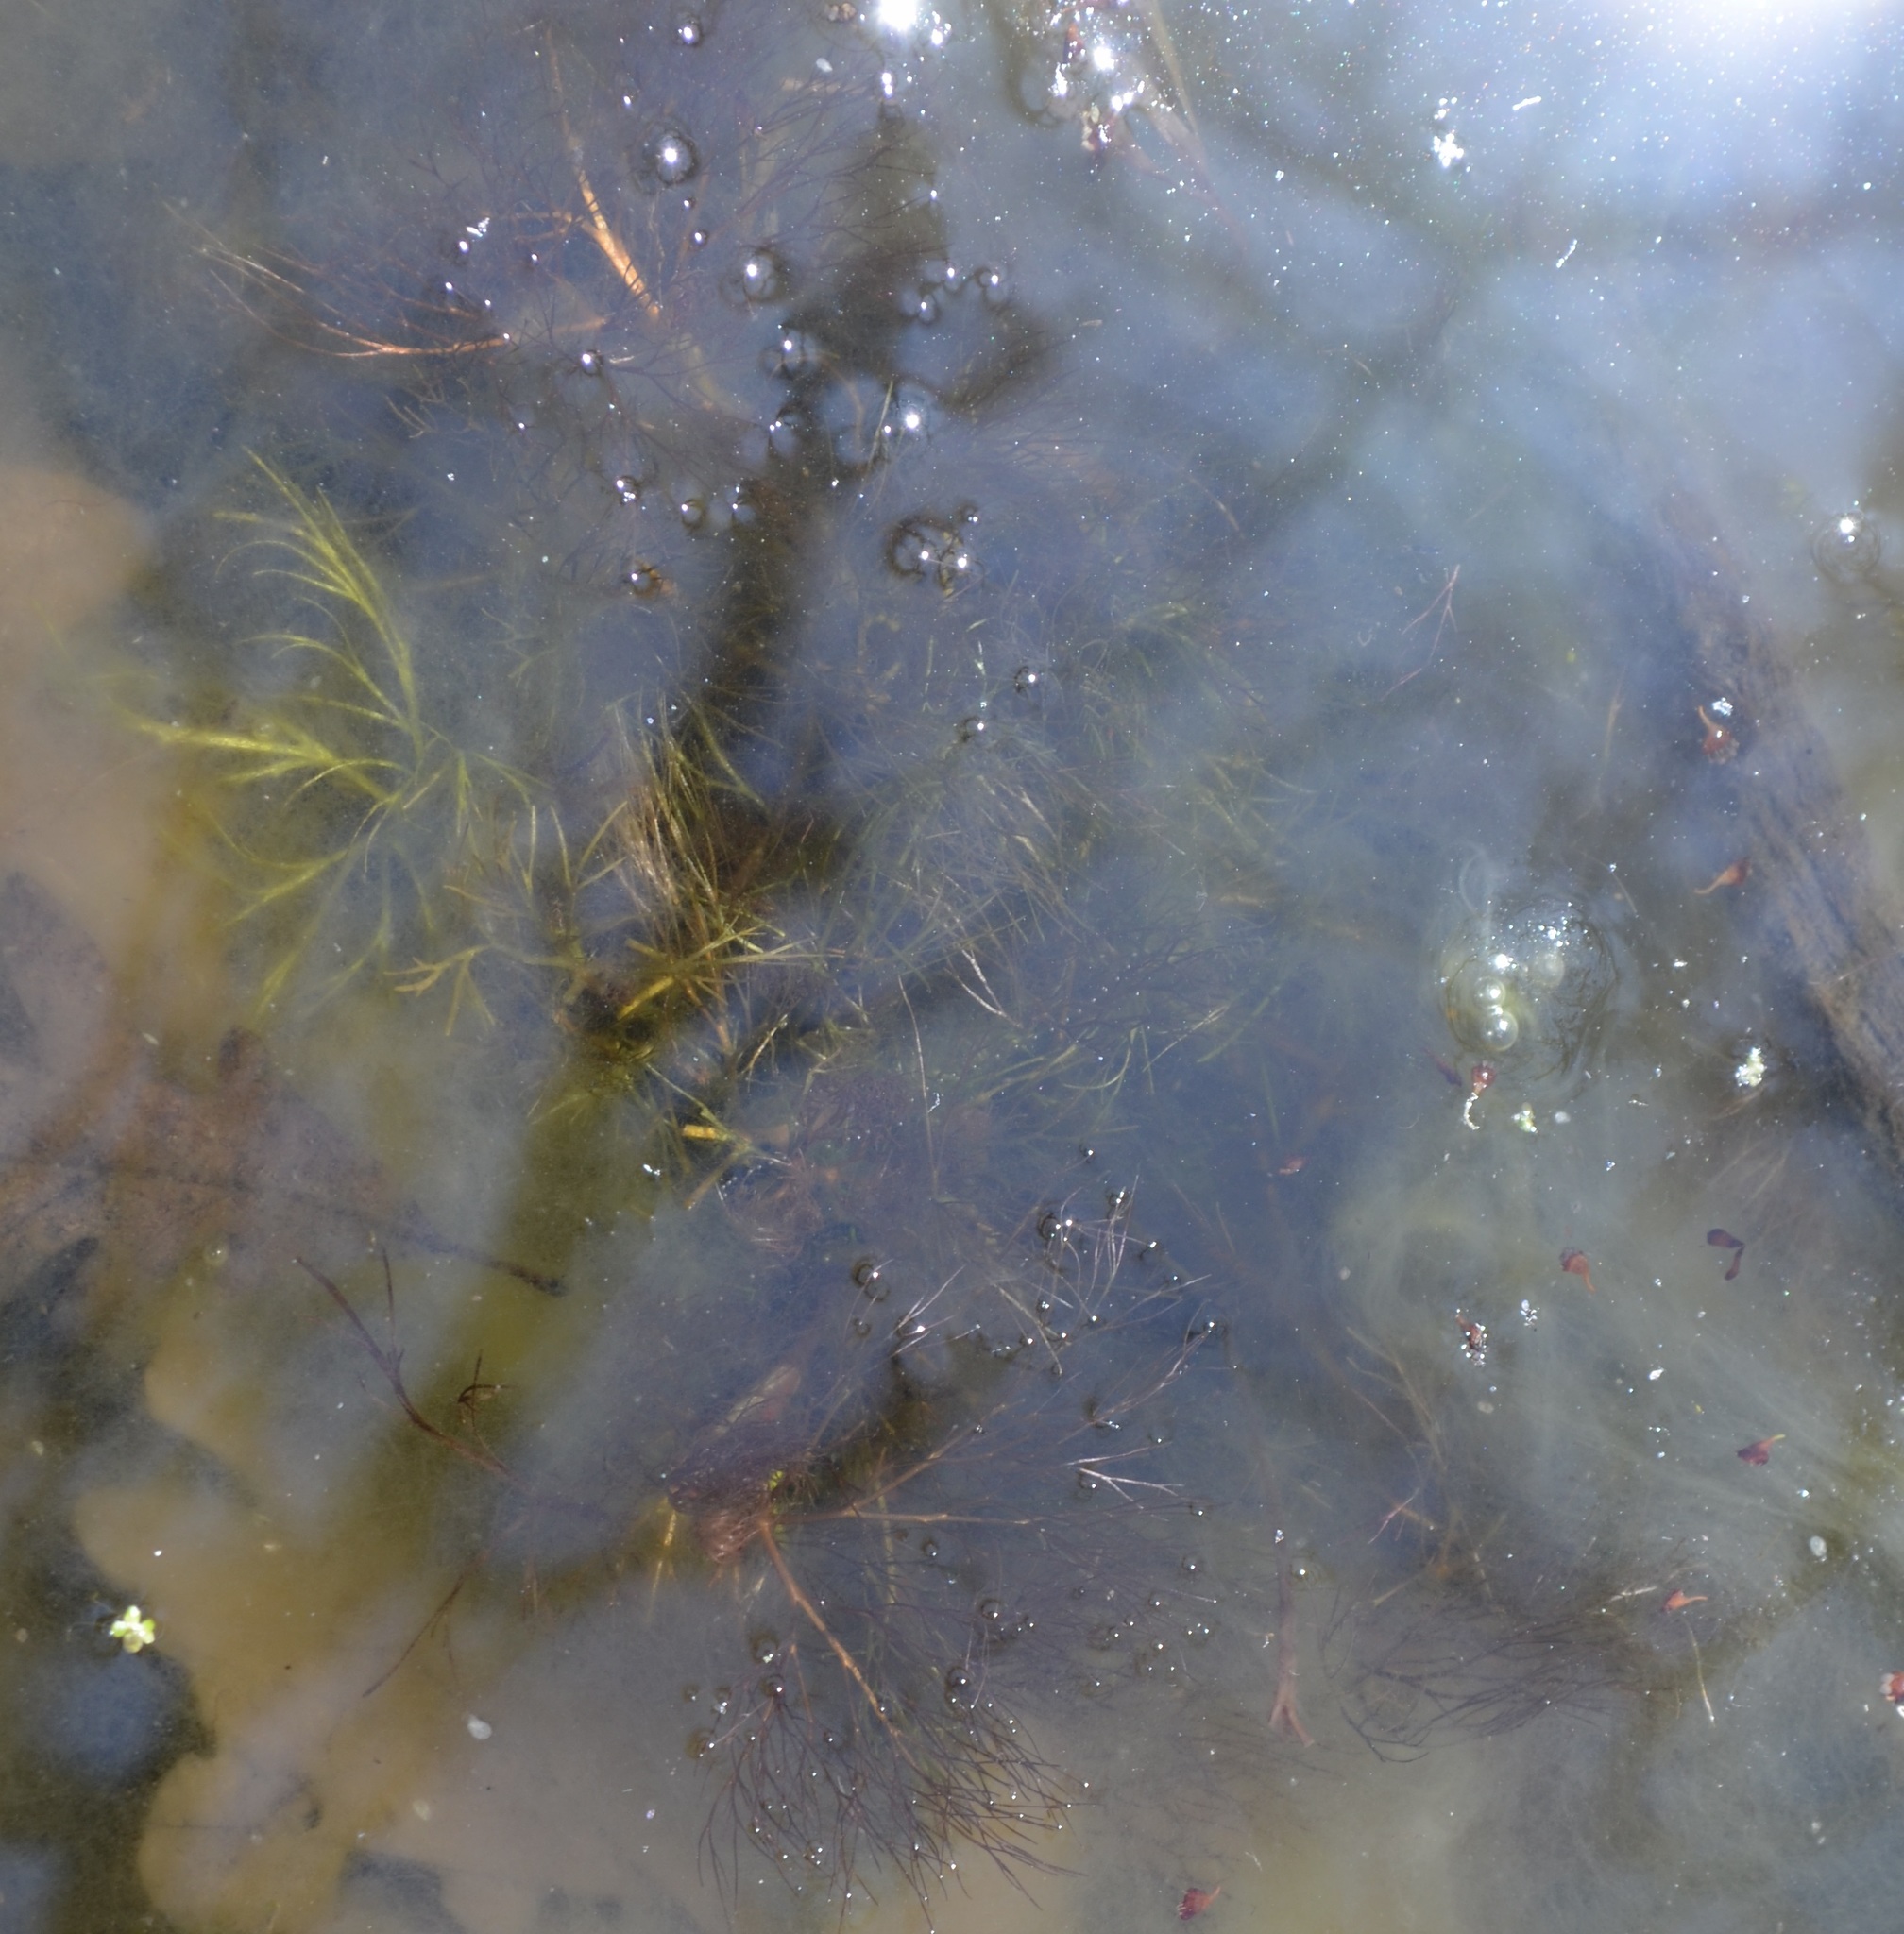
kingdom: Plantae
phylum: Tracheophyta
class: Magnoliopsida
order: Ranunculales
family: Ranunculaceae
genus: Ranunculus
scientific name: Ranunculus flabellaris
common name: Yellow water-crowfoot
